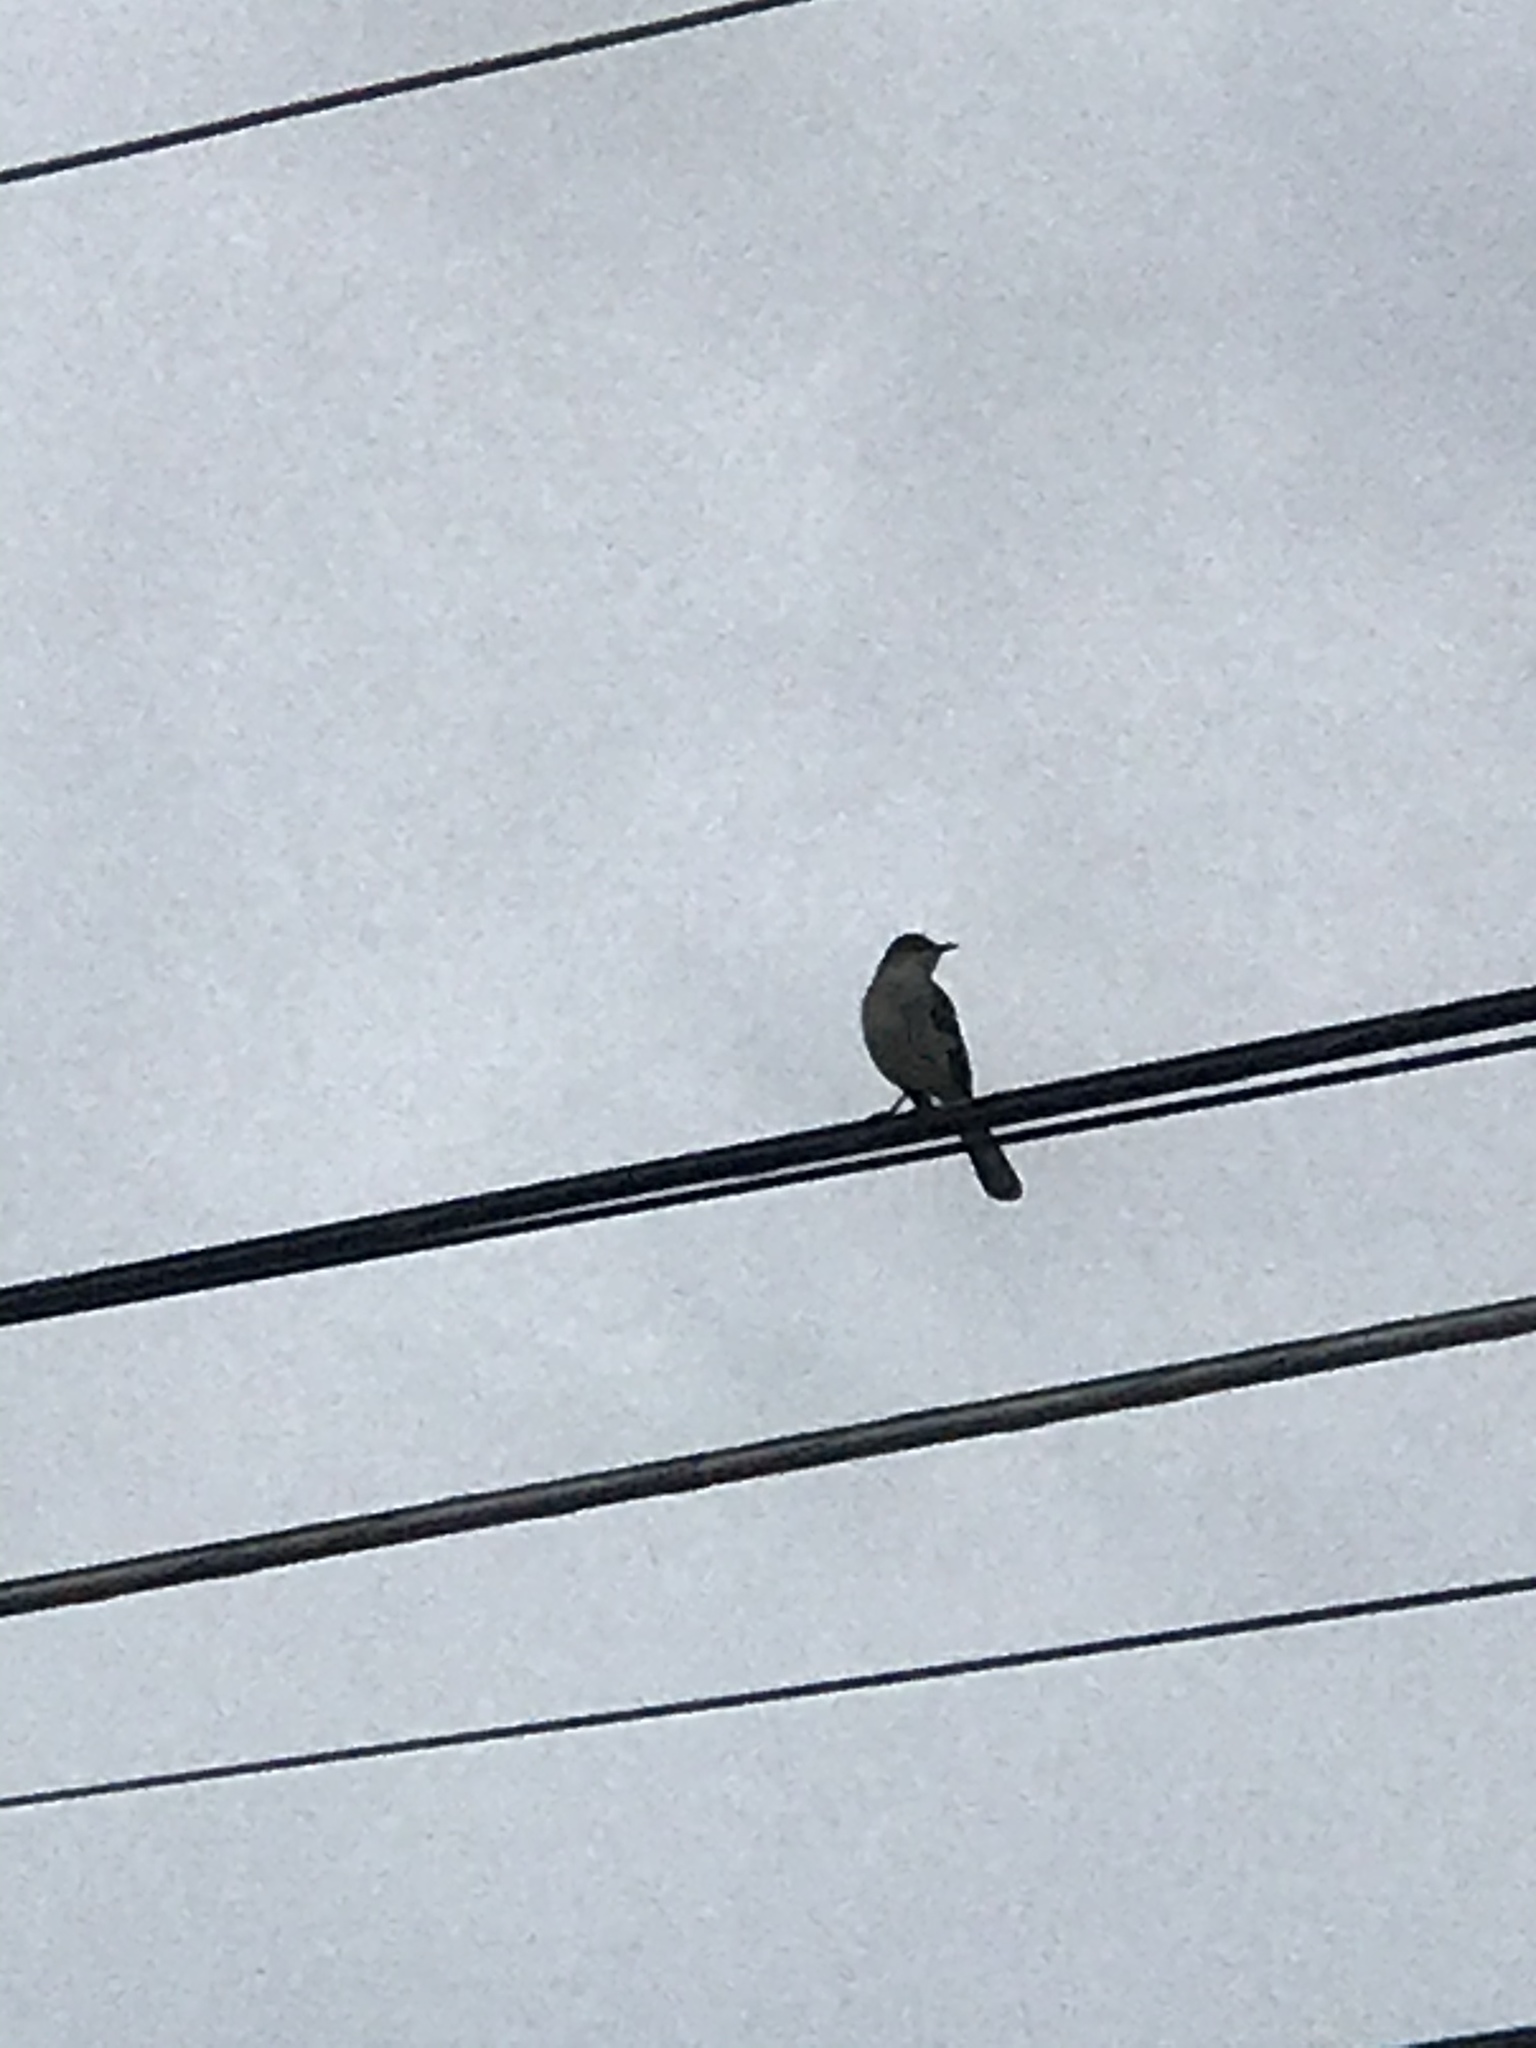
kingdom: Animalia
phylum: Chordata
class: Aves
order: Passeriformes
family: Mimidae
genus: Mimus
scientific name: Mimus polyglottos
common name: Northern mockingbird
